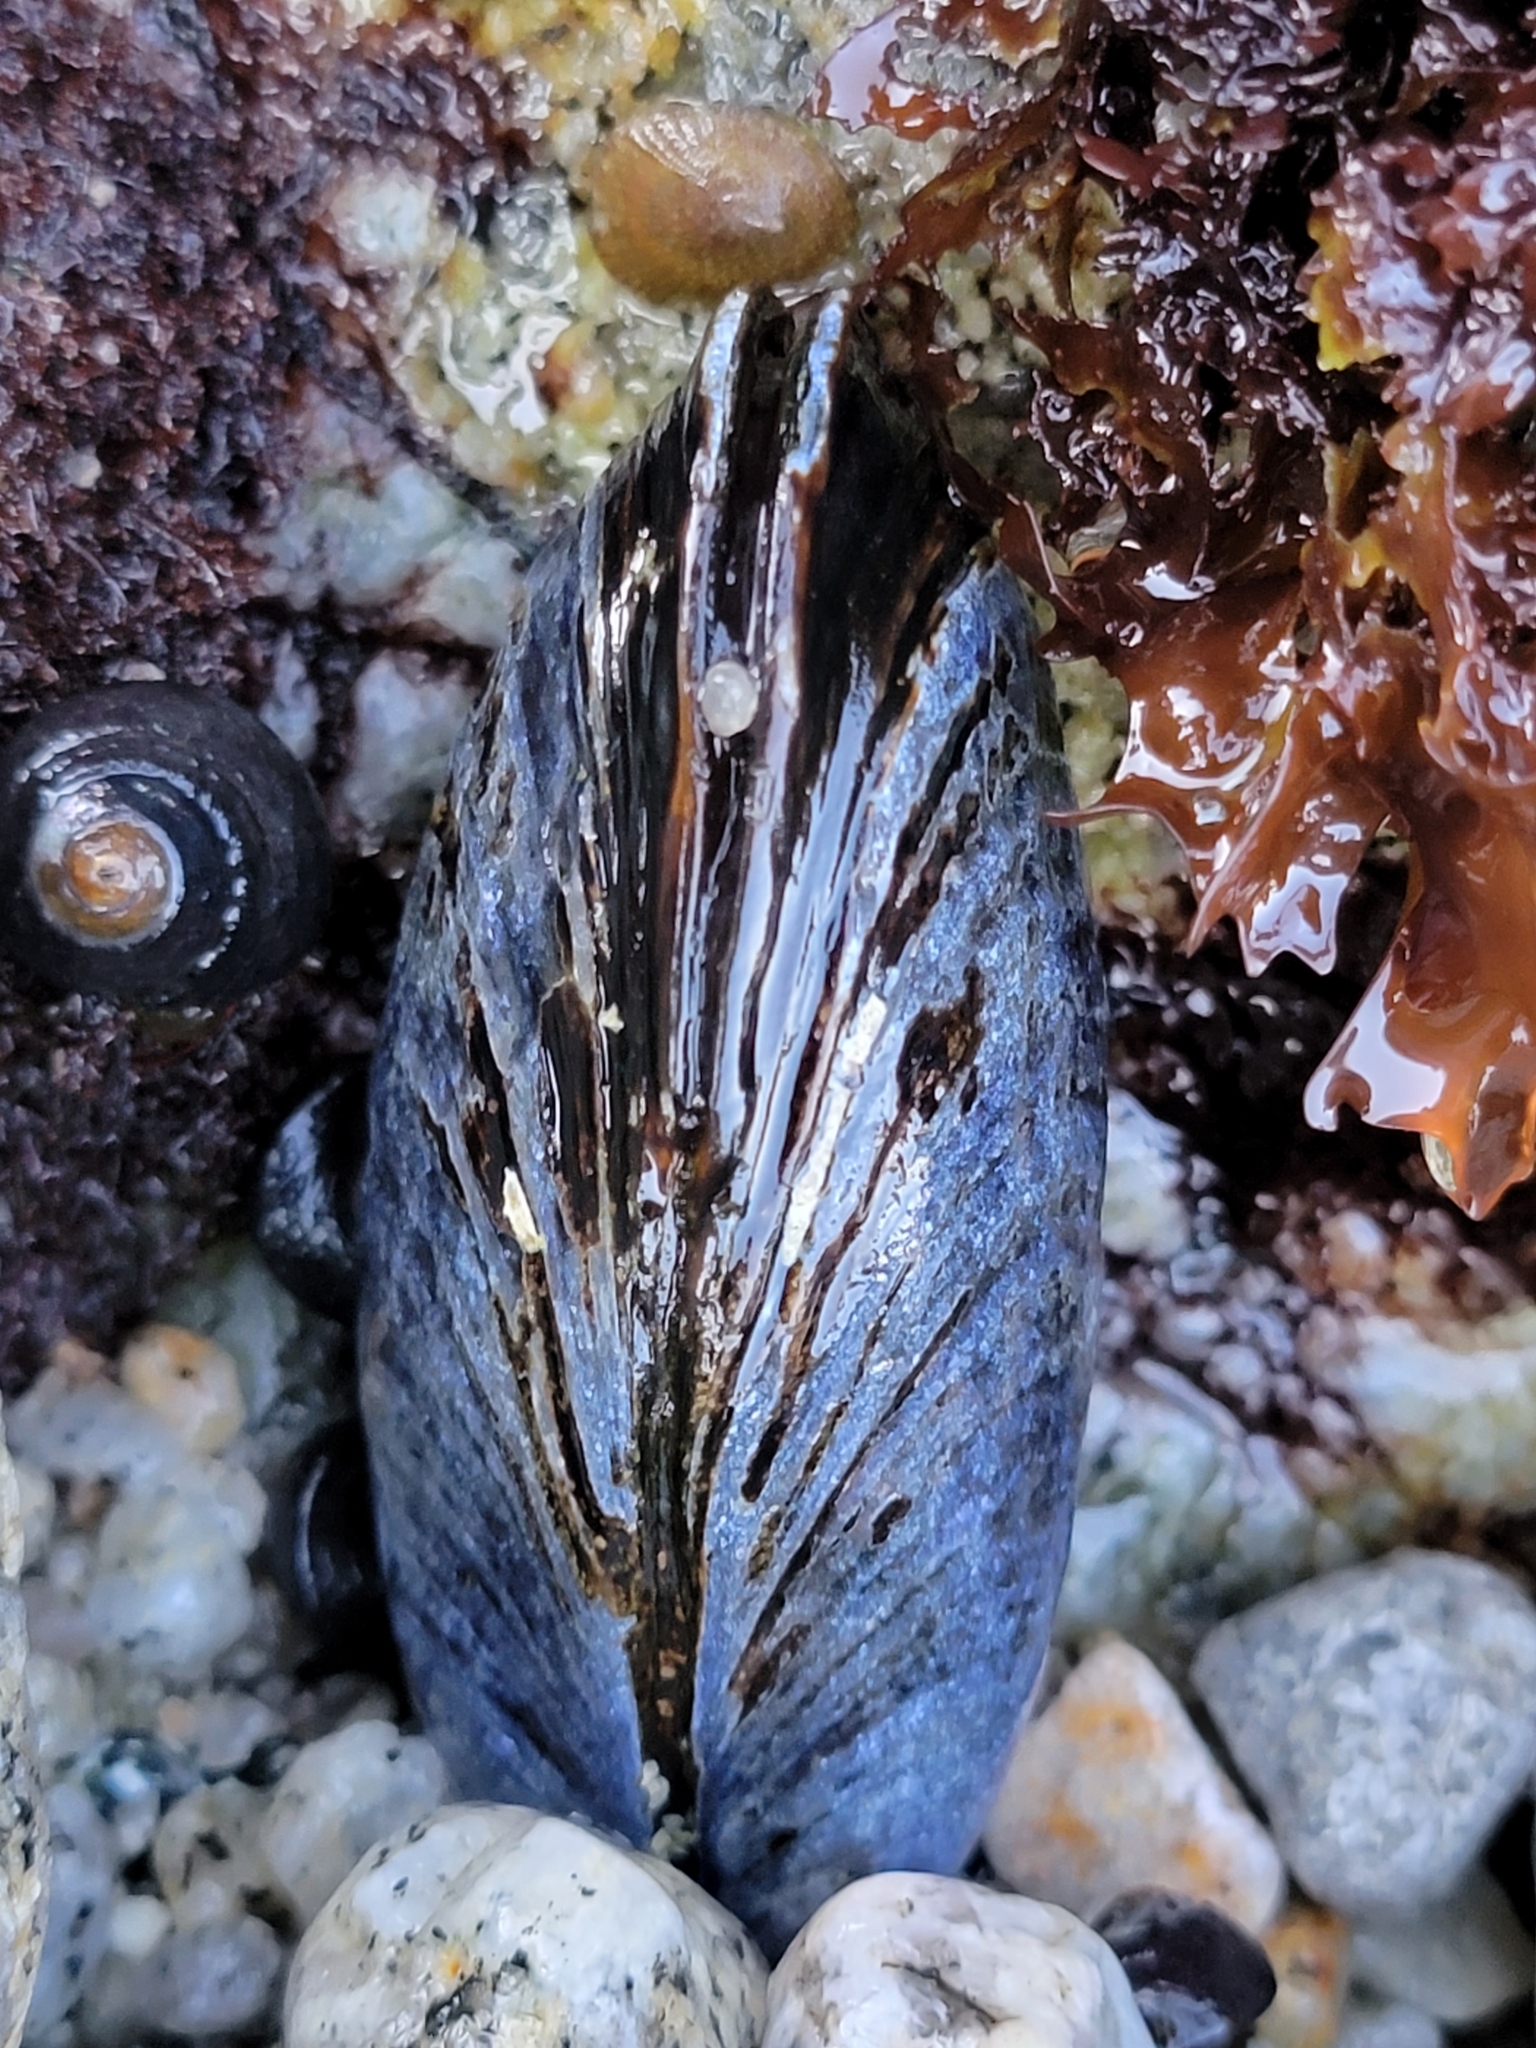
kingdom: Animalia
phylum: Mollusca
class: Bivalvia
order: Mytilida
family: Mytilidae
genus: Mytilus
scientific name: Mytilus californianus
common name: California mussel
